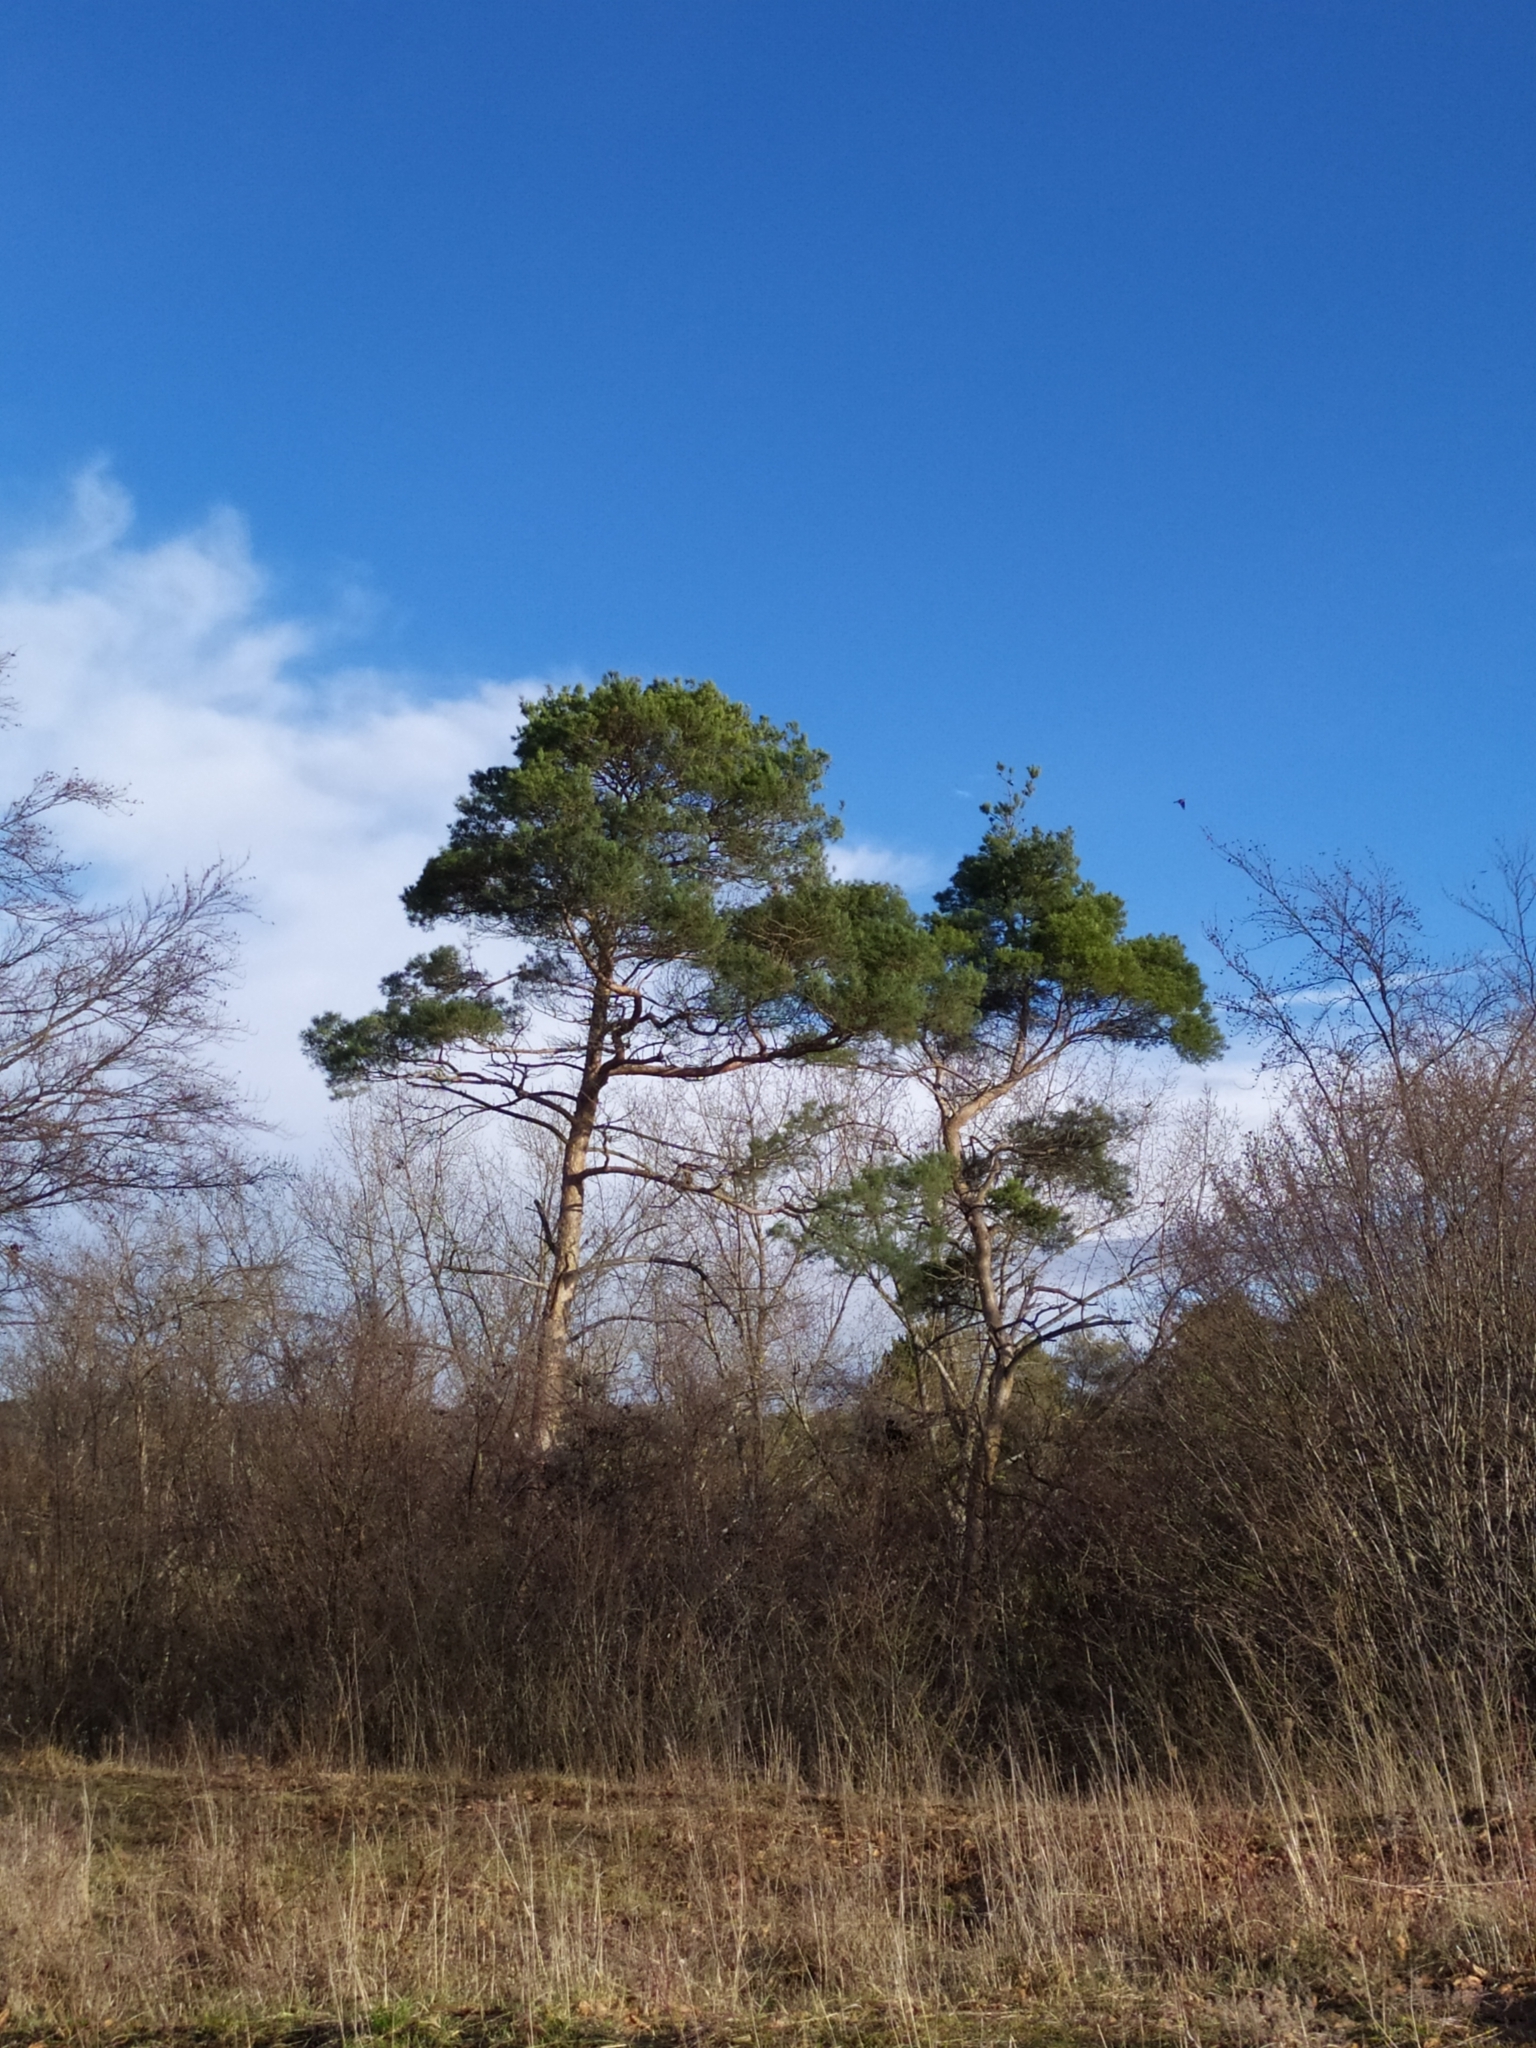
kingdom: Plantae
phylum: Tracheophyta
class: Pinopsida
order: Pinales
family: Pinaceae
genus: Pinus
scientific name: Pinus sylvestris
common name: Scots pine
